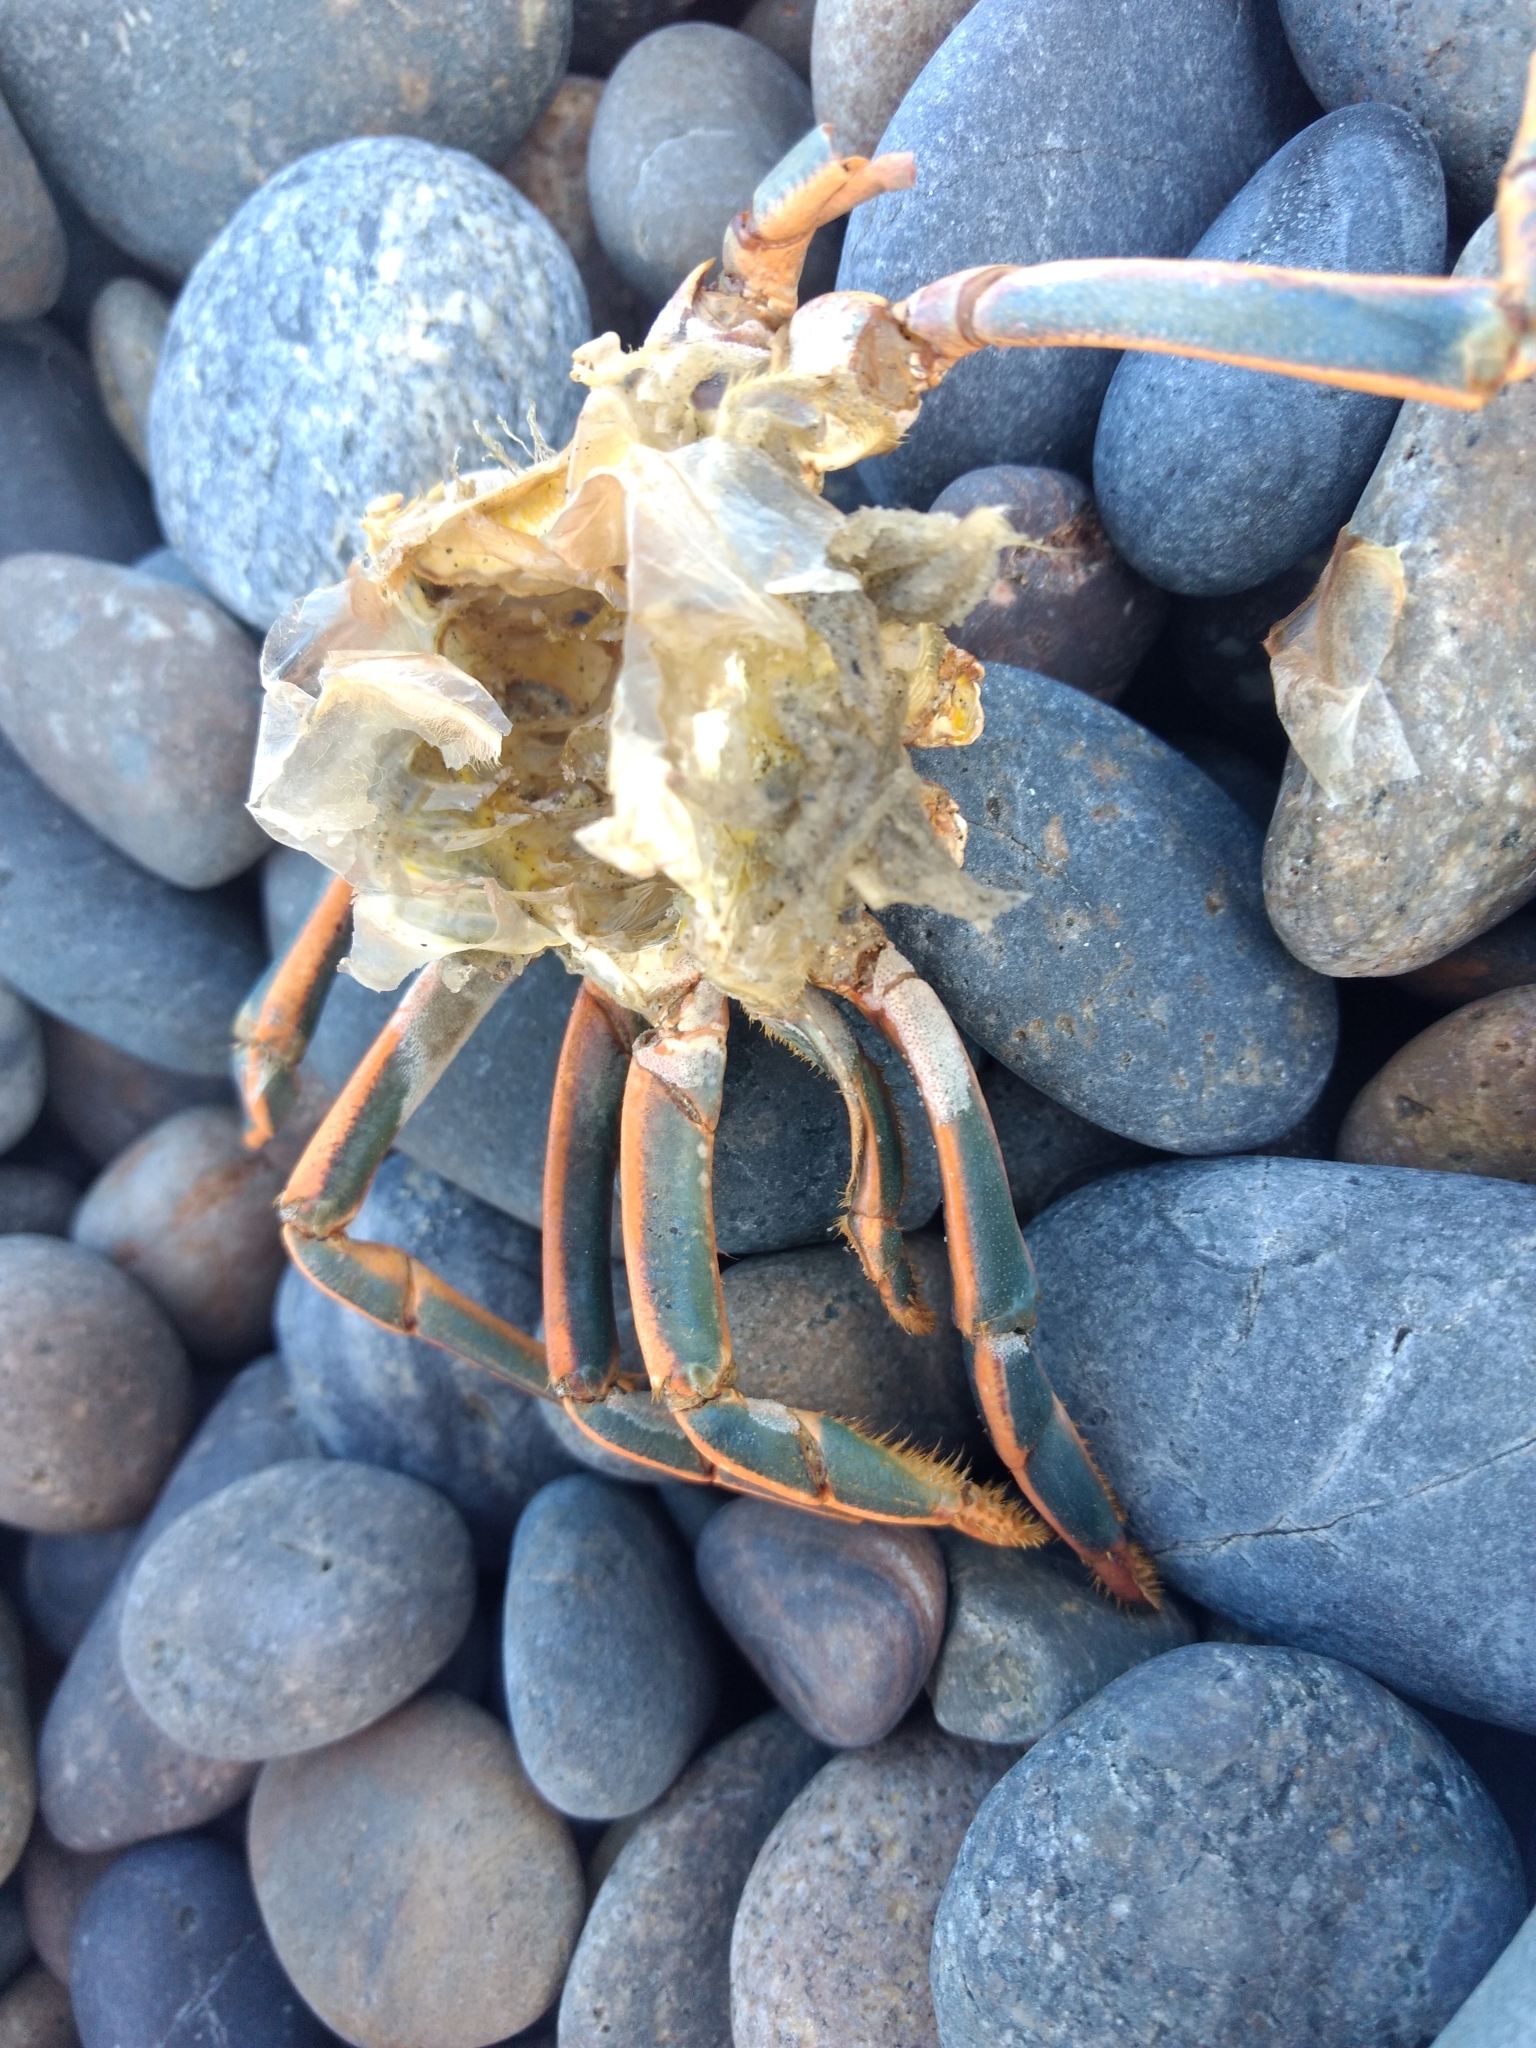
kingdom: Animalia
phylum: Arthropoda
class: Malacostraca
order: Decapoda
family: Palinuridae
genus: Panulirus
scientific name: Panulirus interruptus
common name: California spiny lobster
